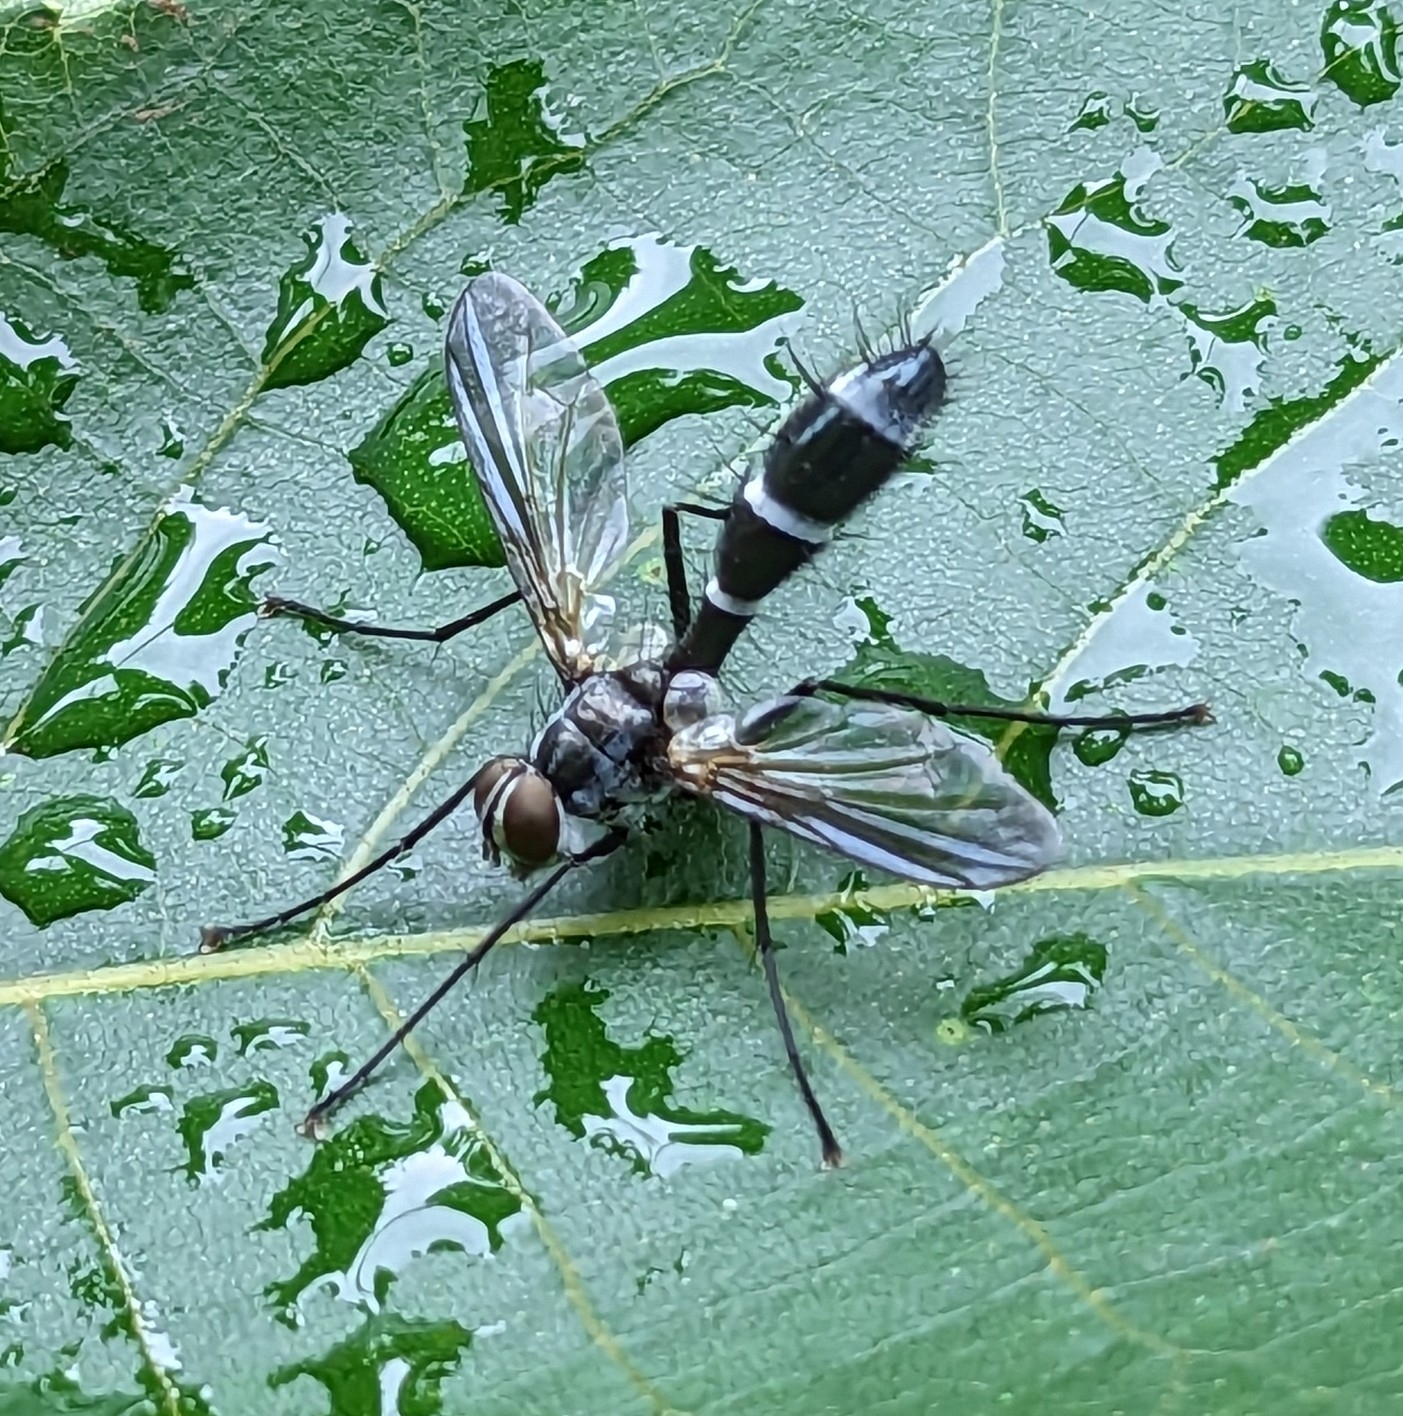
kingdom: Animalia
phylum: Arthropoda
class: Insecta
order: Diptera
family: Tachinidae
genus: Cordyligaster
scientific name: Cordyligaster septentrionalis
